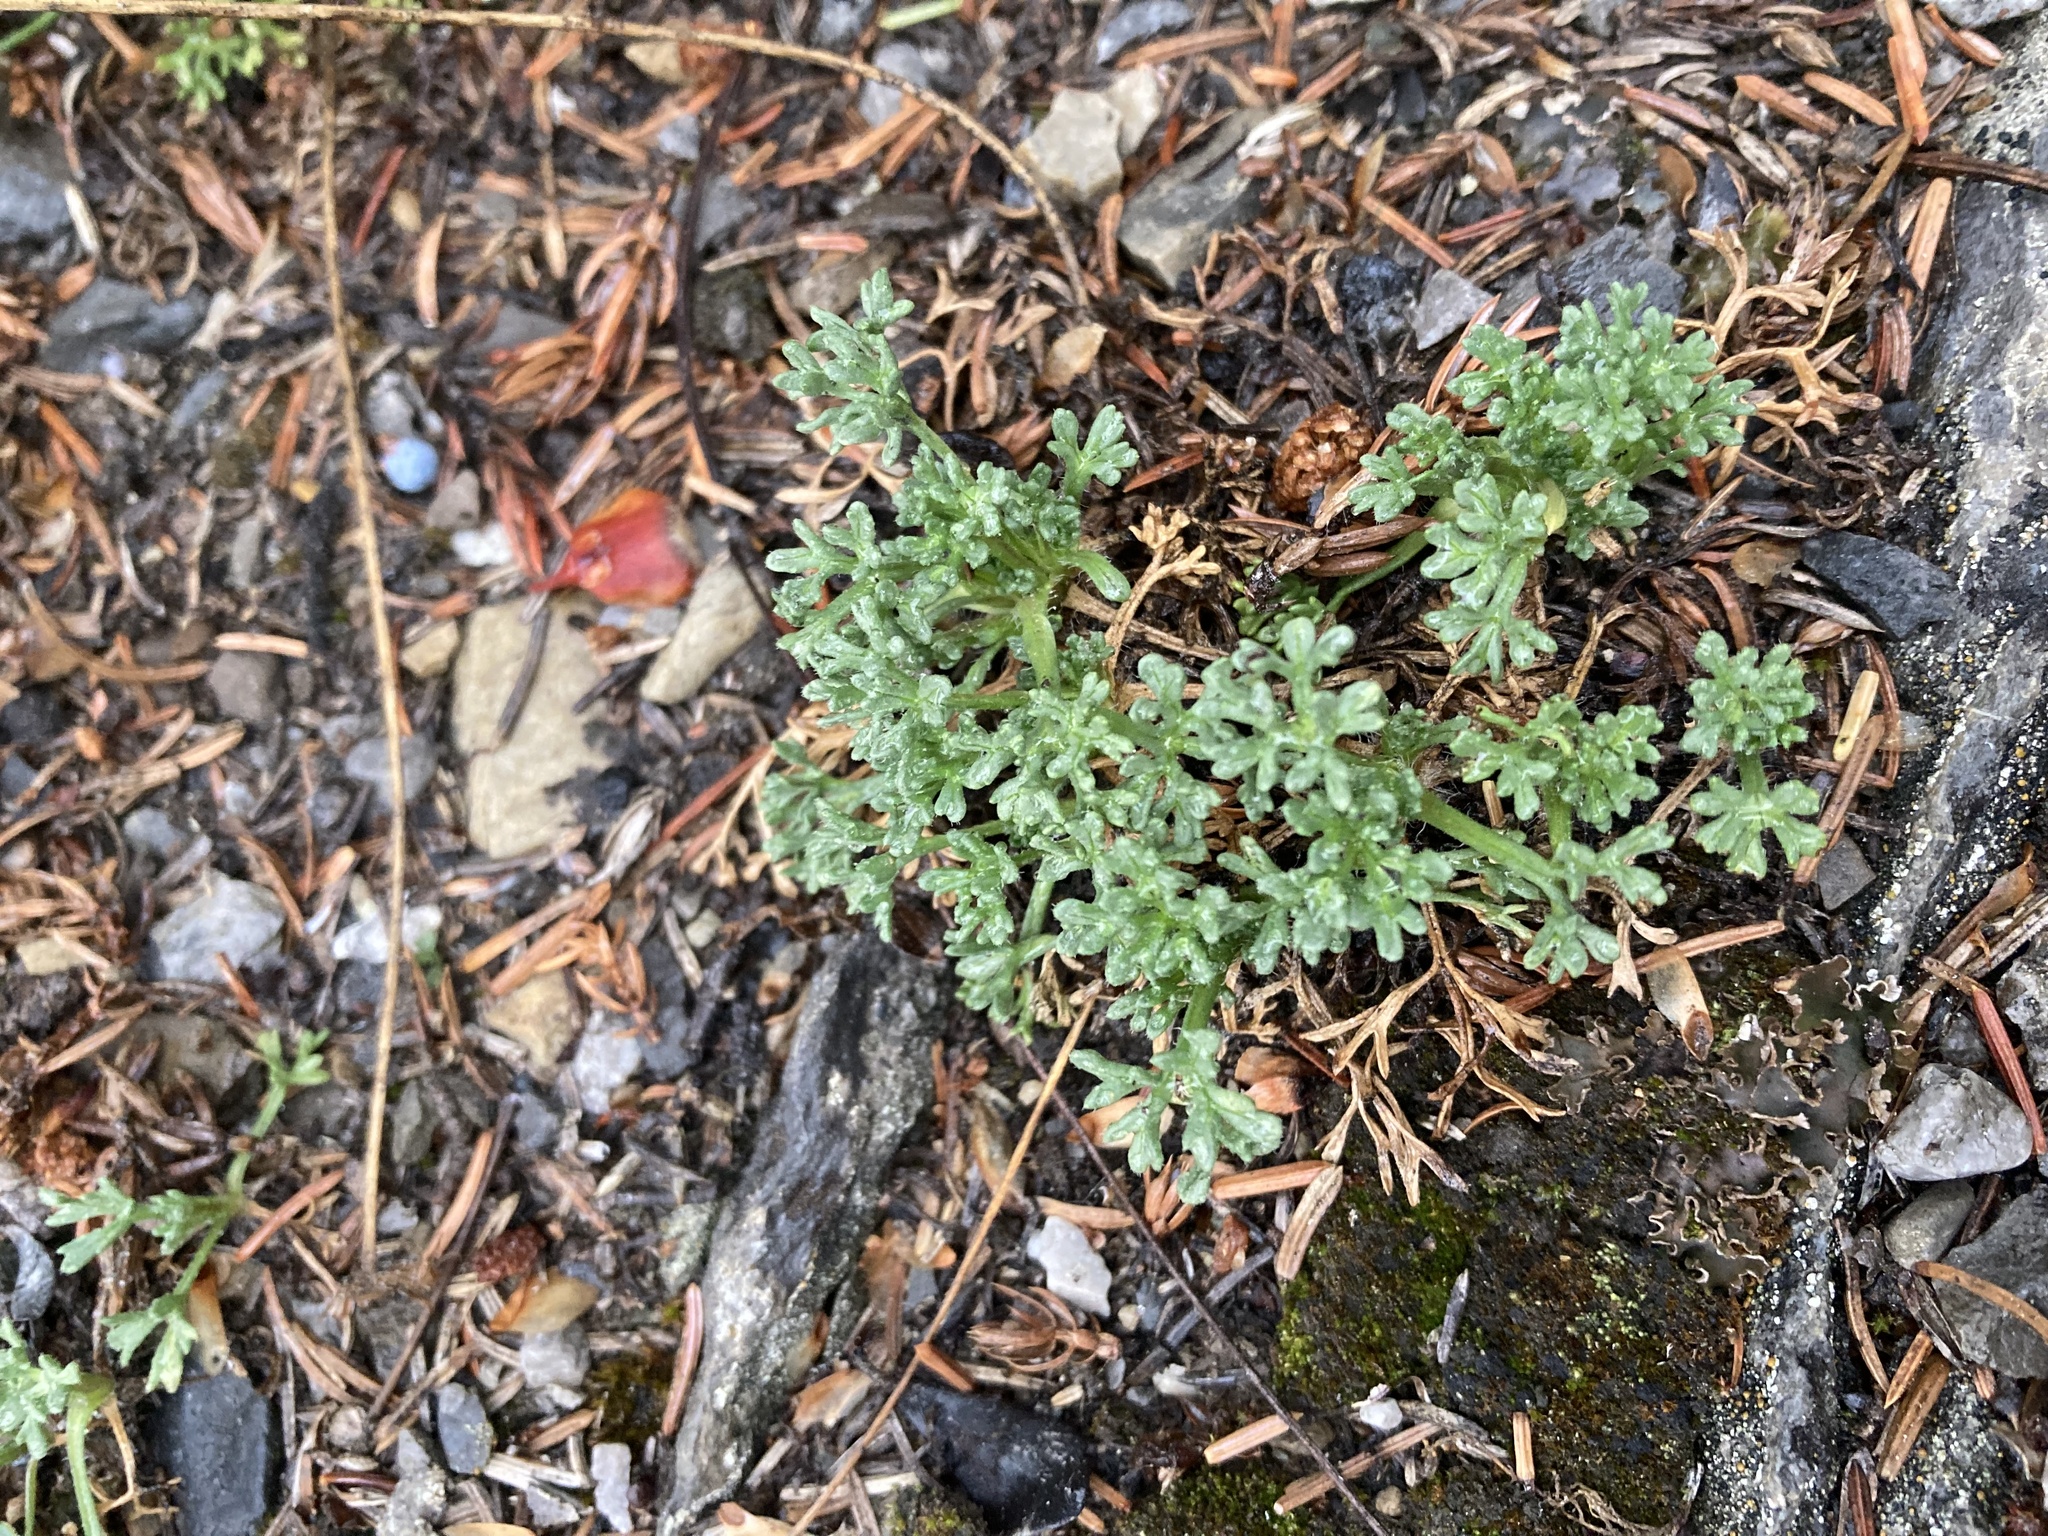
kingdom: Plantae
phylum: Tracheophyta
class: Magnoliopsida
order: Asterales
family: Asteraceae
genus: Erigeron
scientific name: Erigeron compositus
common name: Dwarf mountain fleabane
